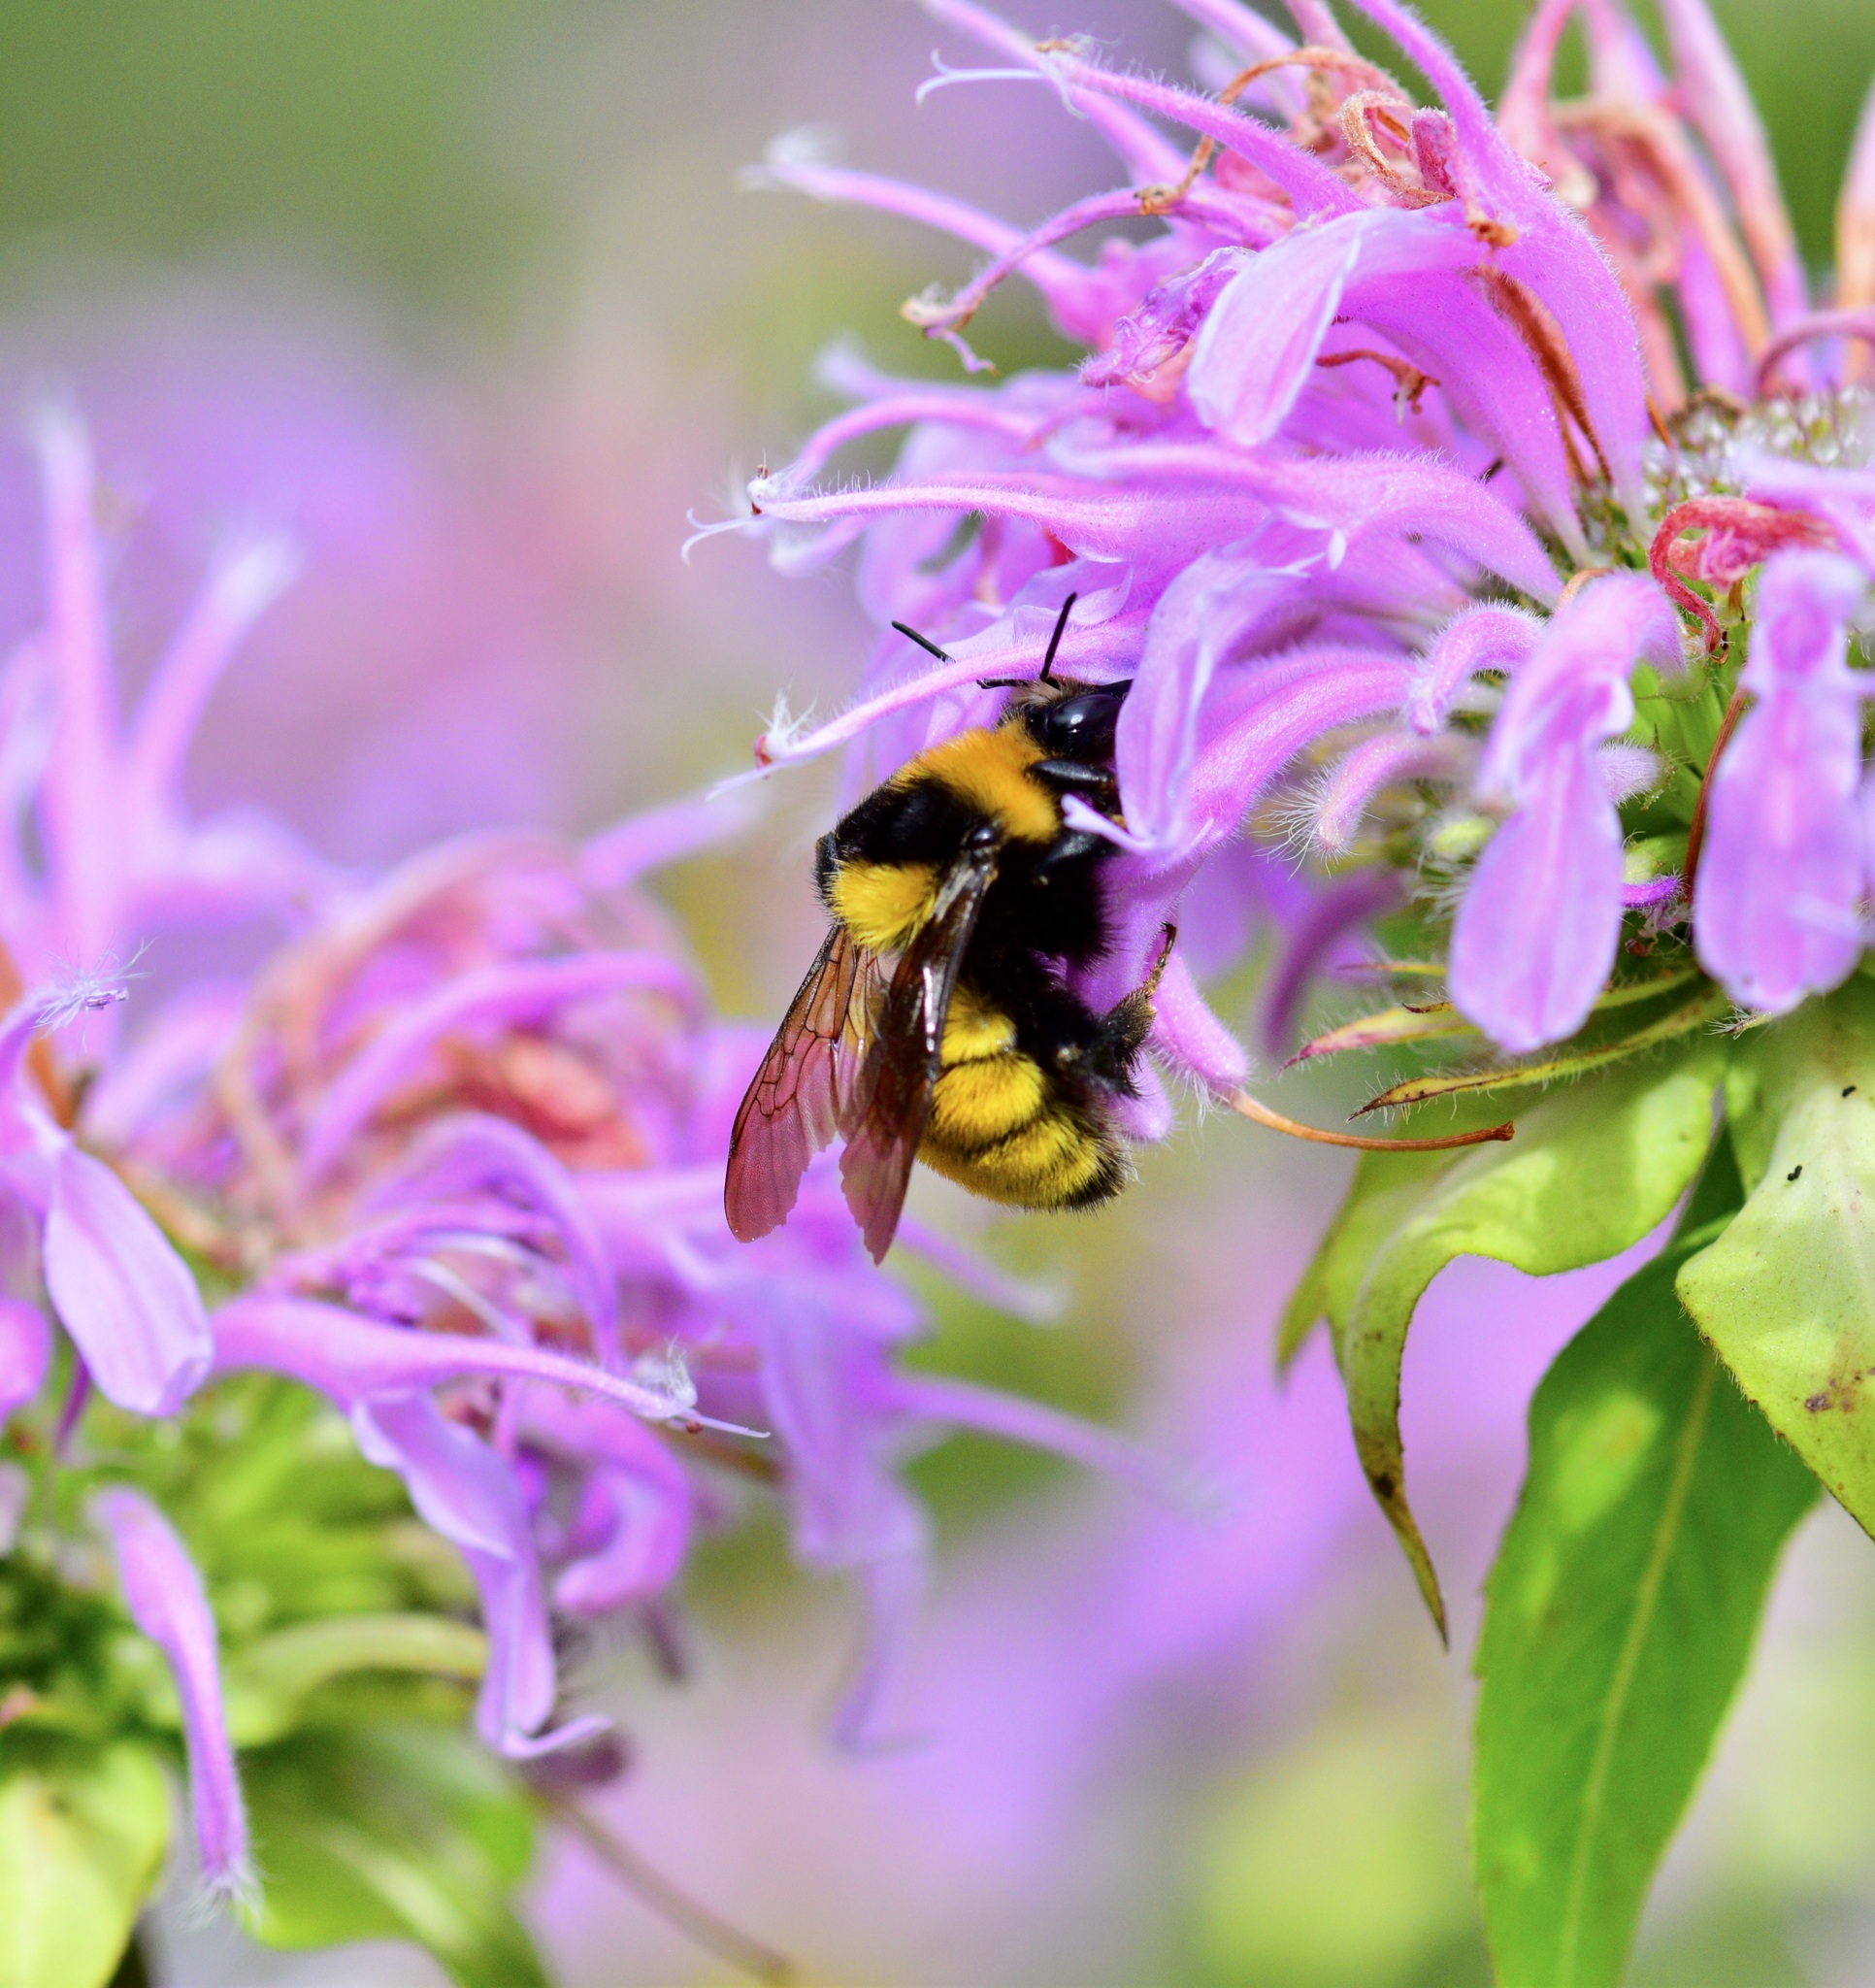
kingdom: Animalia
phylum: Arthropoda
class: Insecta
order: Hymenoptera
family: Apidae
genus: Bombus
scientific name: Bombus borealis
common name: Northern amber bumble bee
